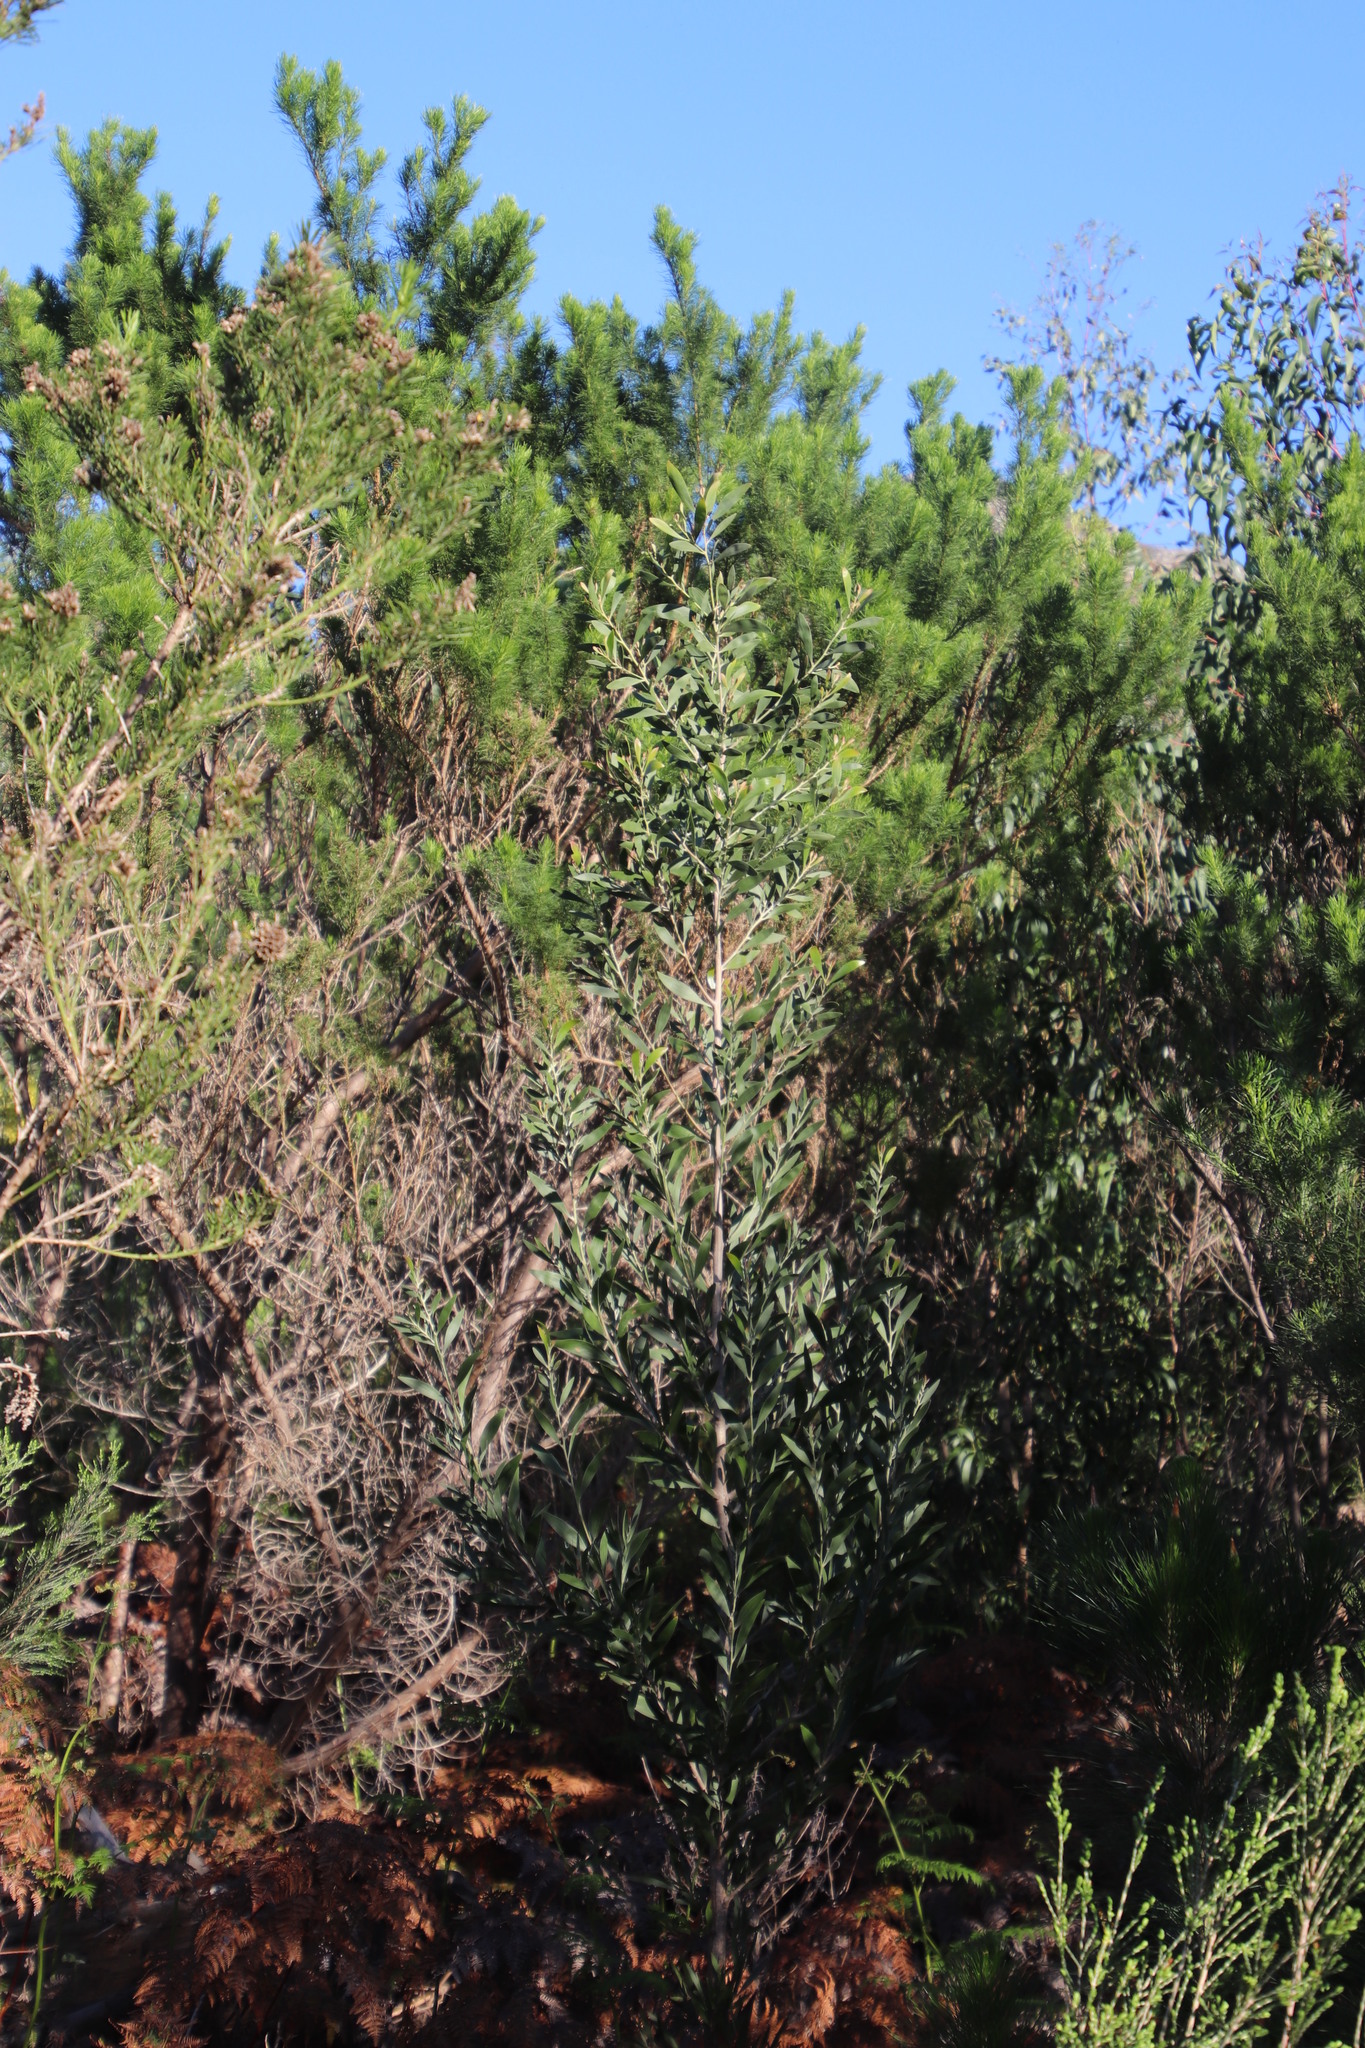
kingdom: Plantae
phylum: Tracheophyta
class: Magnoliopsida
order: Fabales
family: Fabaceae
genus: Acacia
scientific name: Acacia melanoxylon
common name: Blackwood
